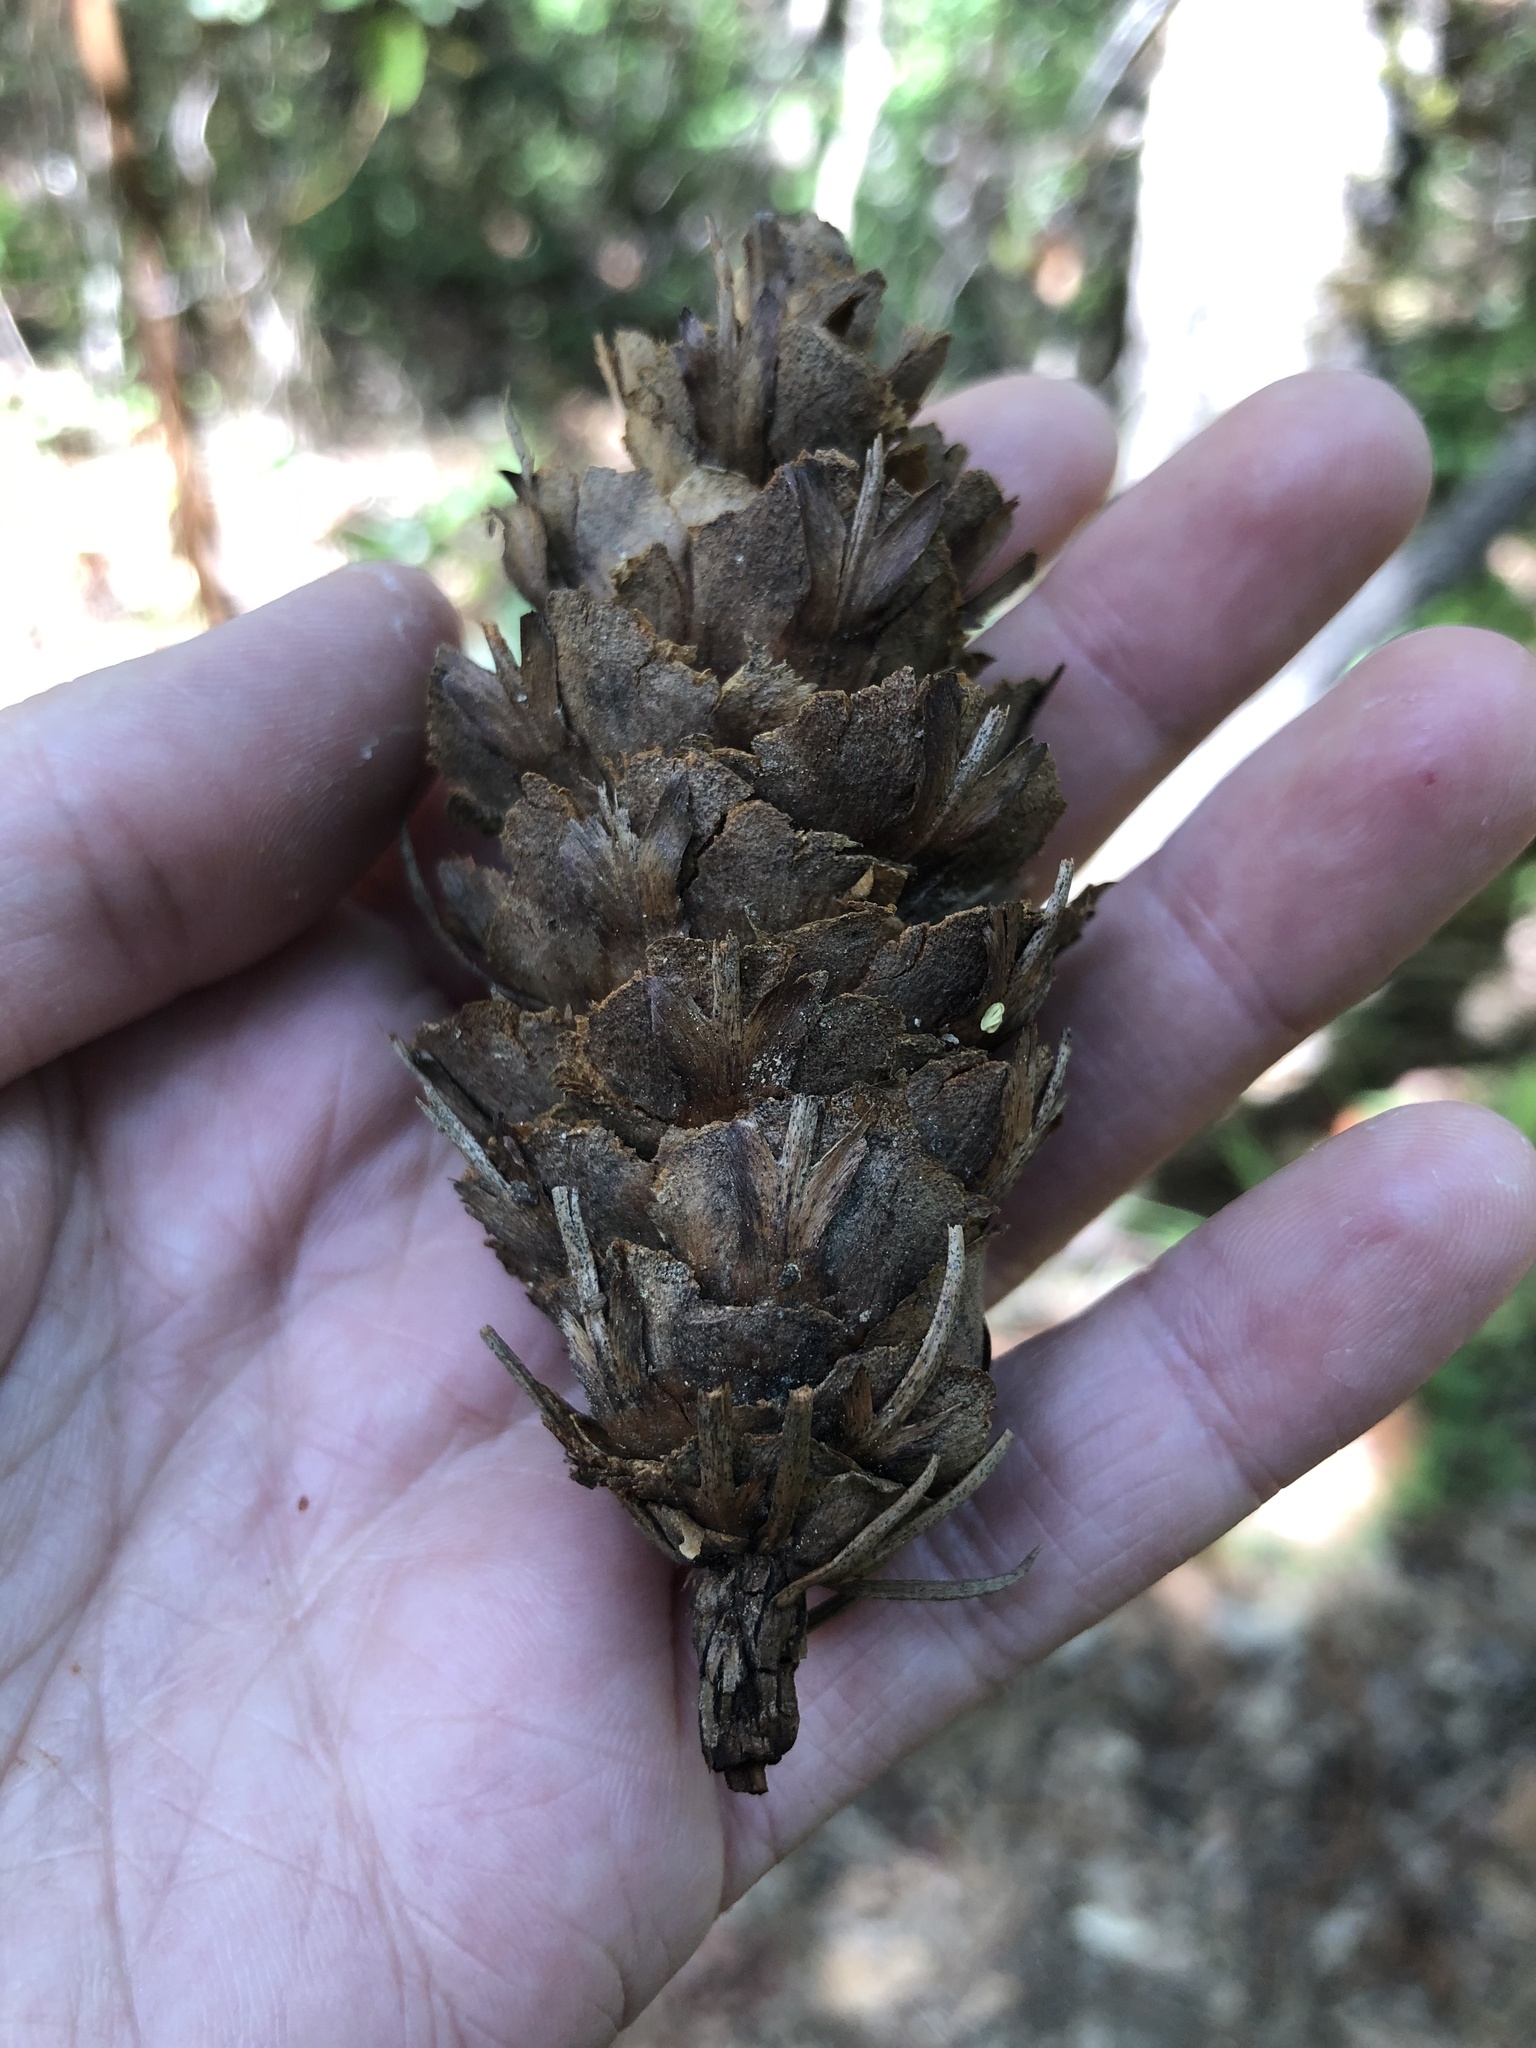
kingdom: Plantae
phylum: Tracheophyta
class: Pinopsida
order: Pinales
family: Pinaceae
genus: Pseudotsuga
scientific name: Pseudotsuga menziesii
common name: Douglas fir
